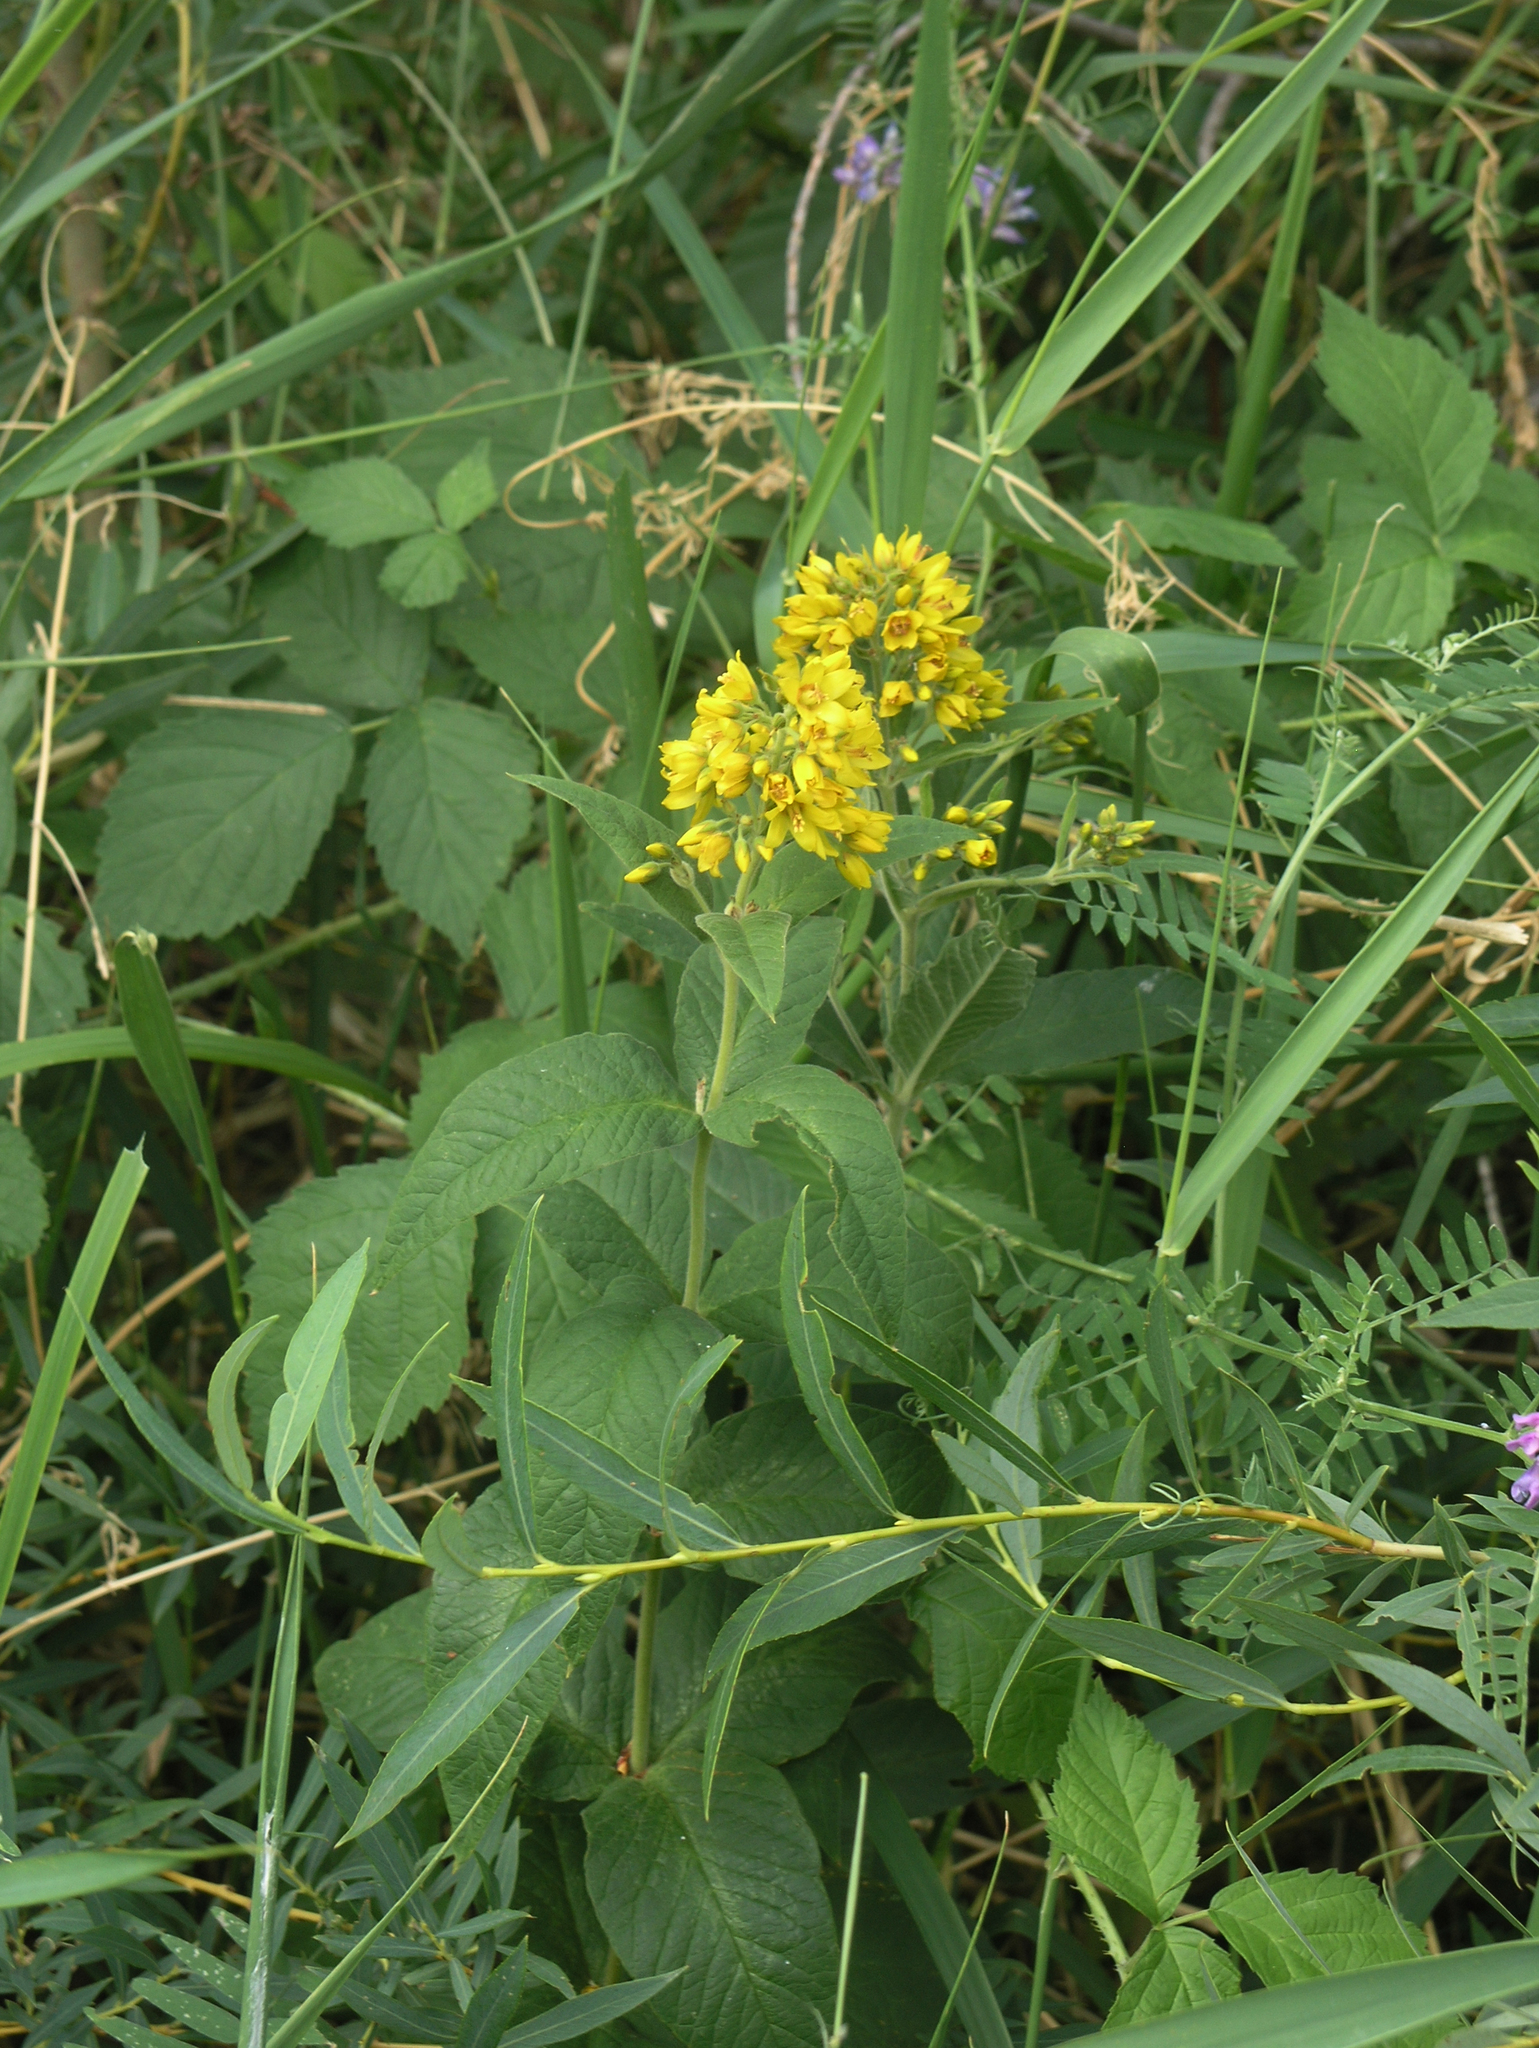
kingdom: Plantae
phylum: Tracheophyta
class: Magnoliopsida
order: Ericales
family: Primulaceae
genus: Lysimachia
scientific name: Lysimachia vulgaris
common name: Yellow loosestrife
